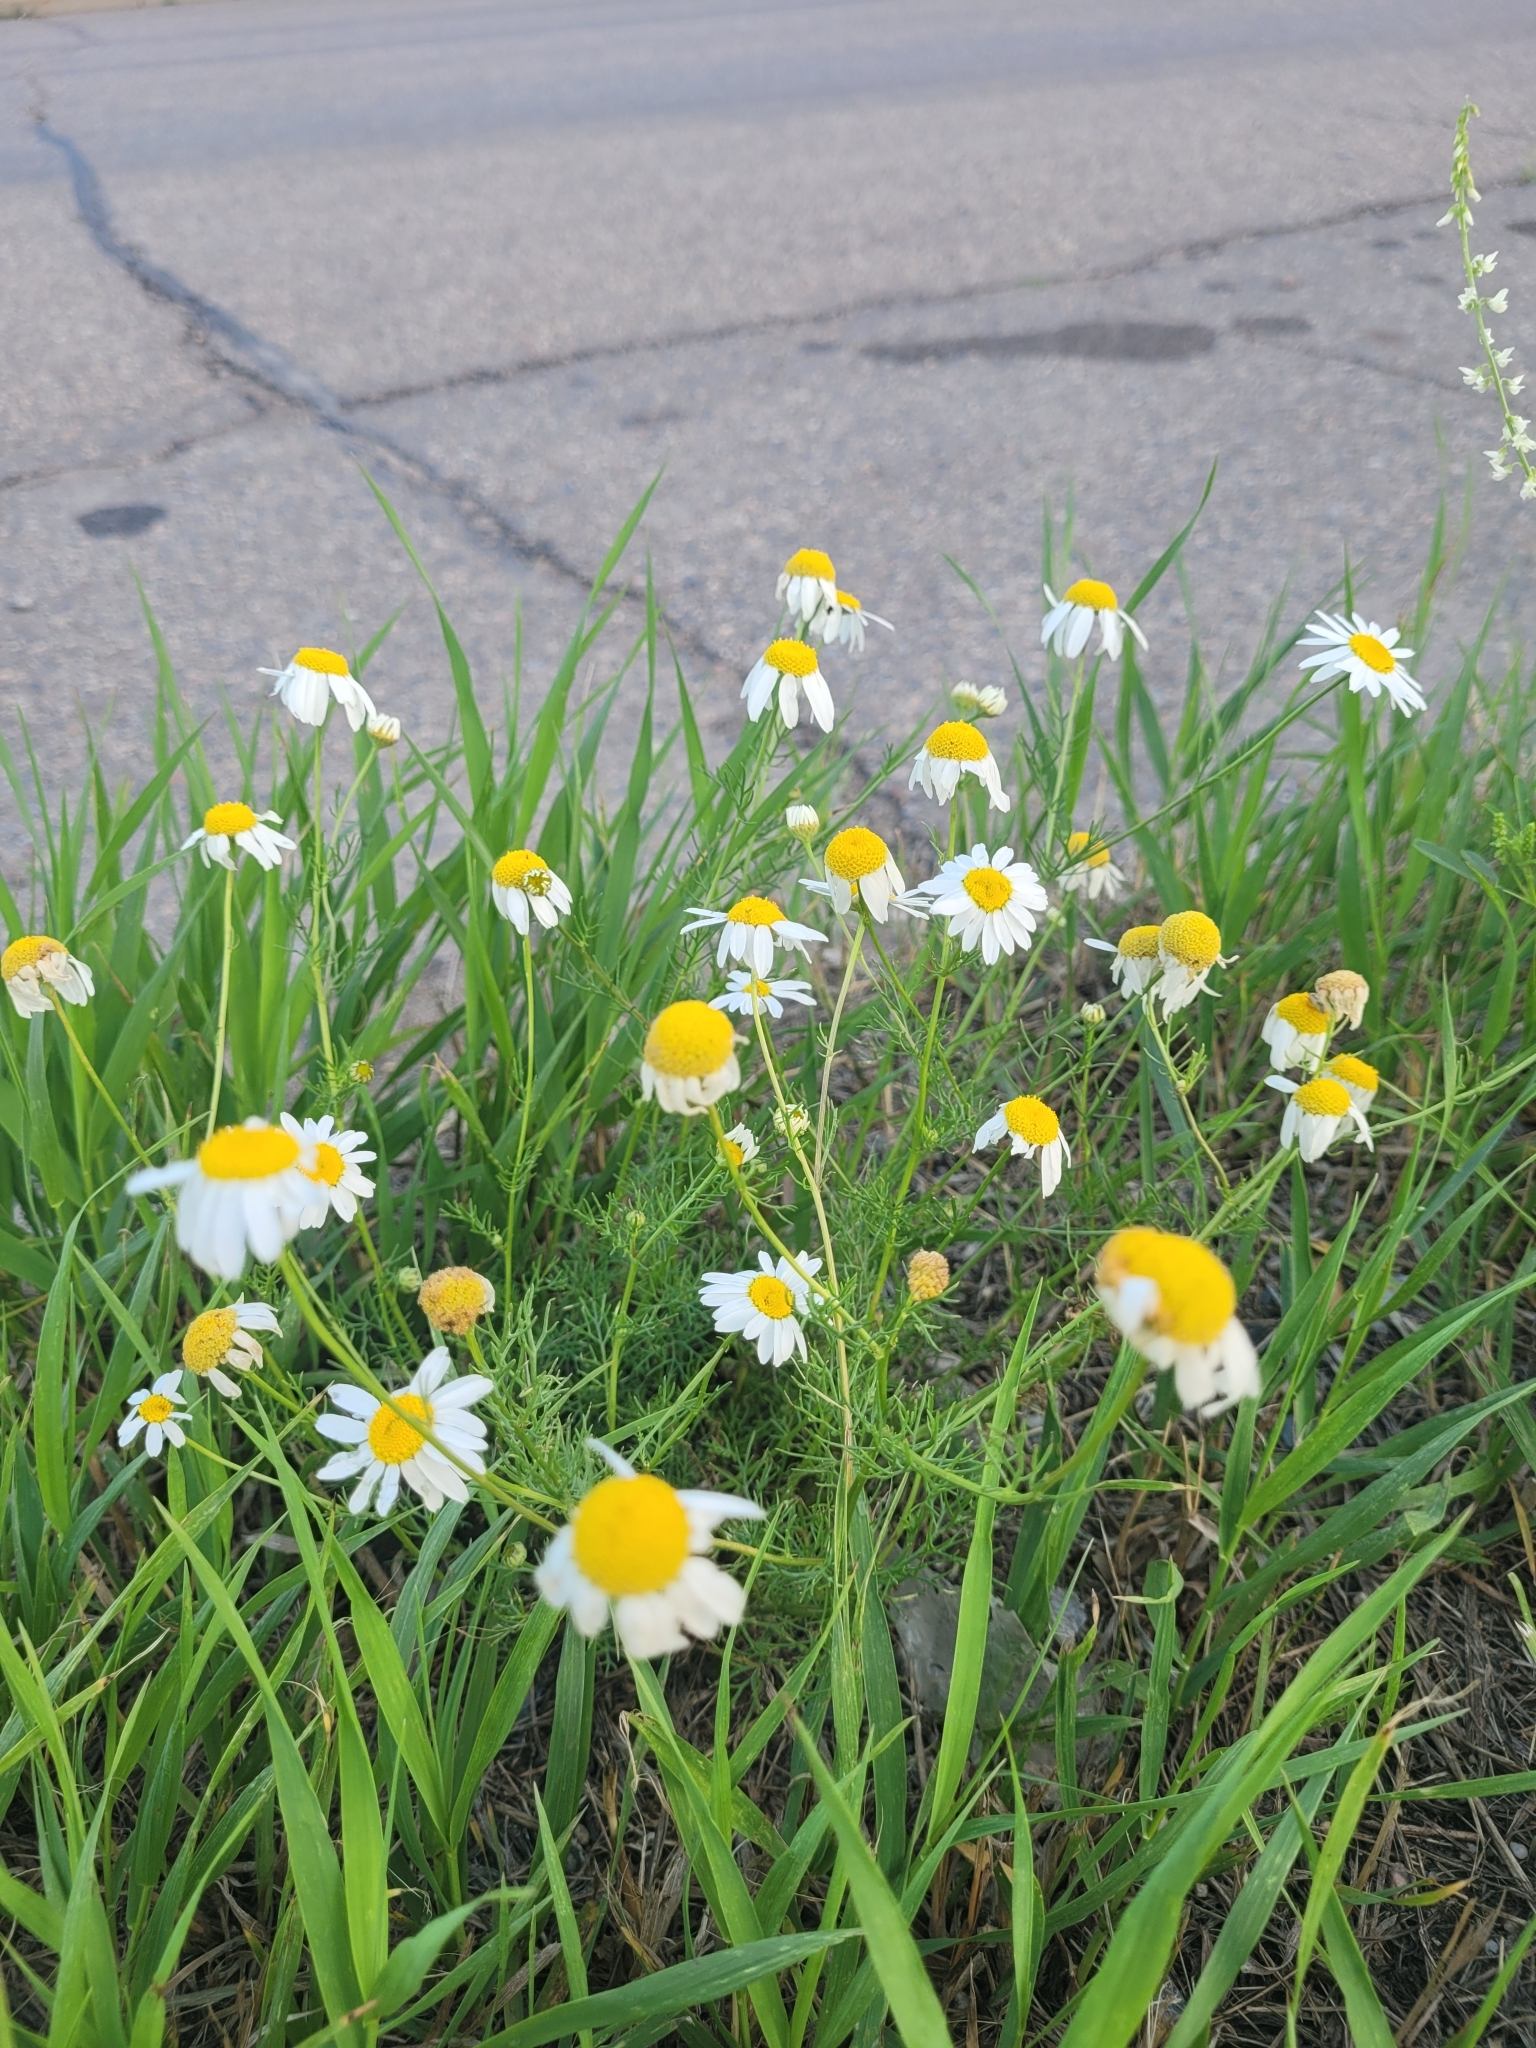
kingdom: Plantae
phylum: Tracheophyta
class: Magnoliopsida
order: Asterales
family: Asteraceae
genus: Tripleurospermum
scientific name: Tripleurospermum inodorum
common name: Scentless mayweed
